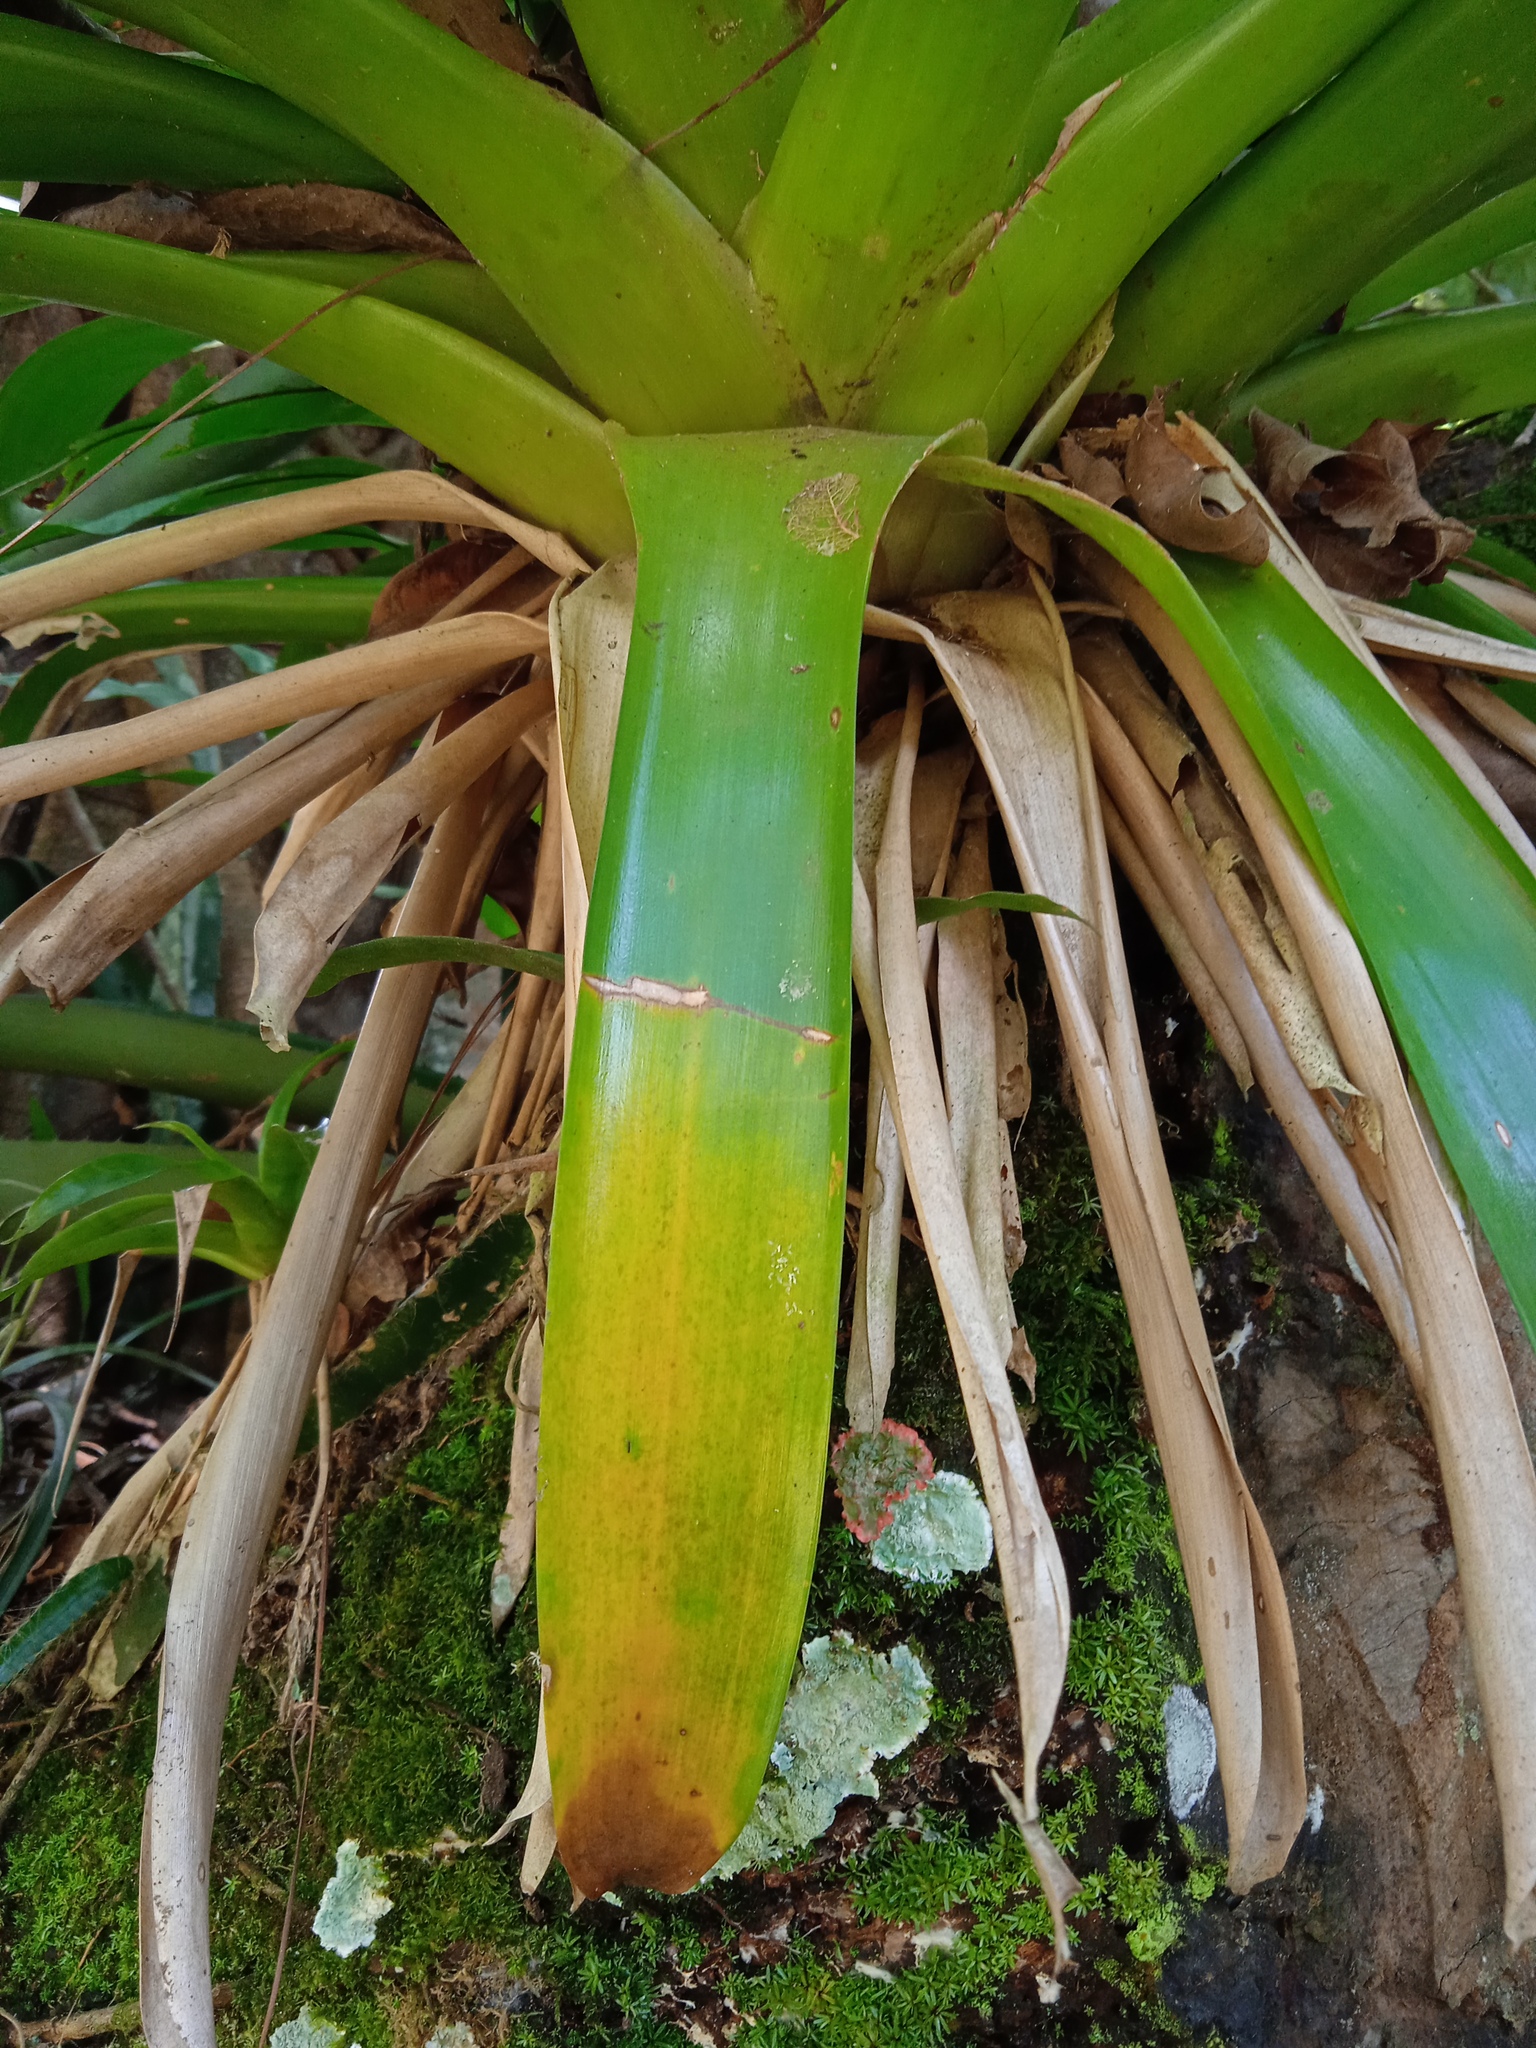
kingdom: Plantae
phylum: Tracheophyta
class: Liliopsida
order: Poales
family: Bromeliaceae
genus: Vriesea
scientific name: Vriesea rubra
